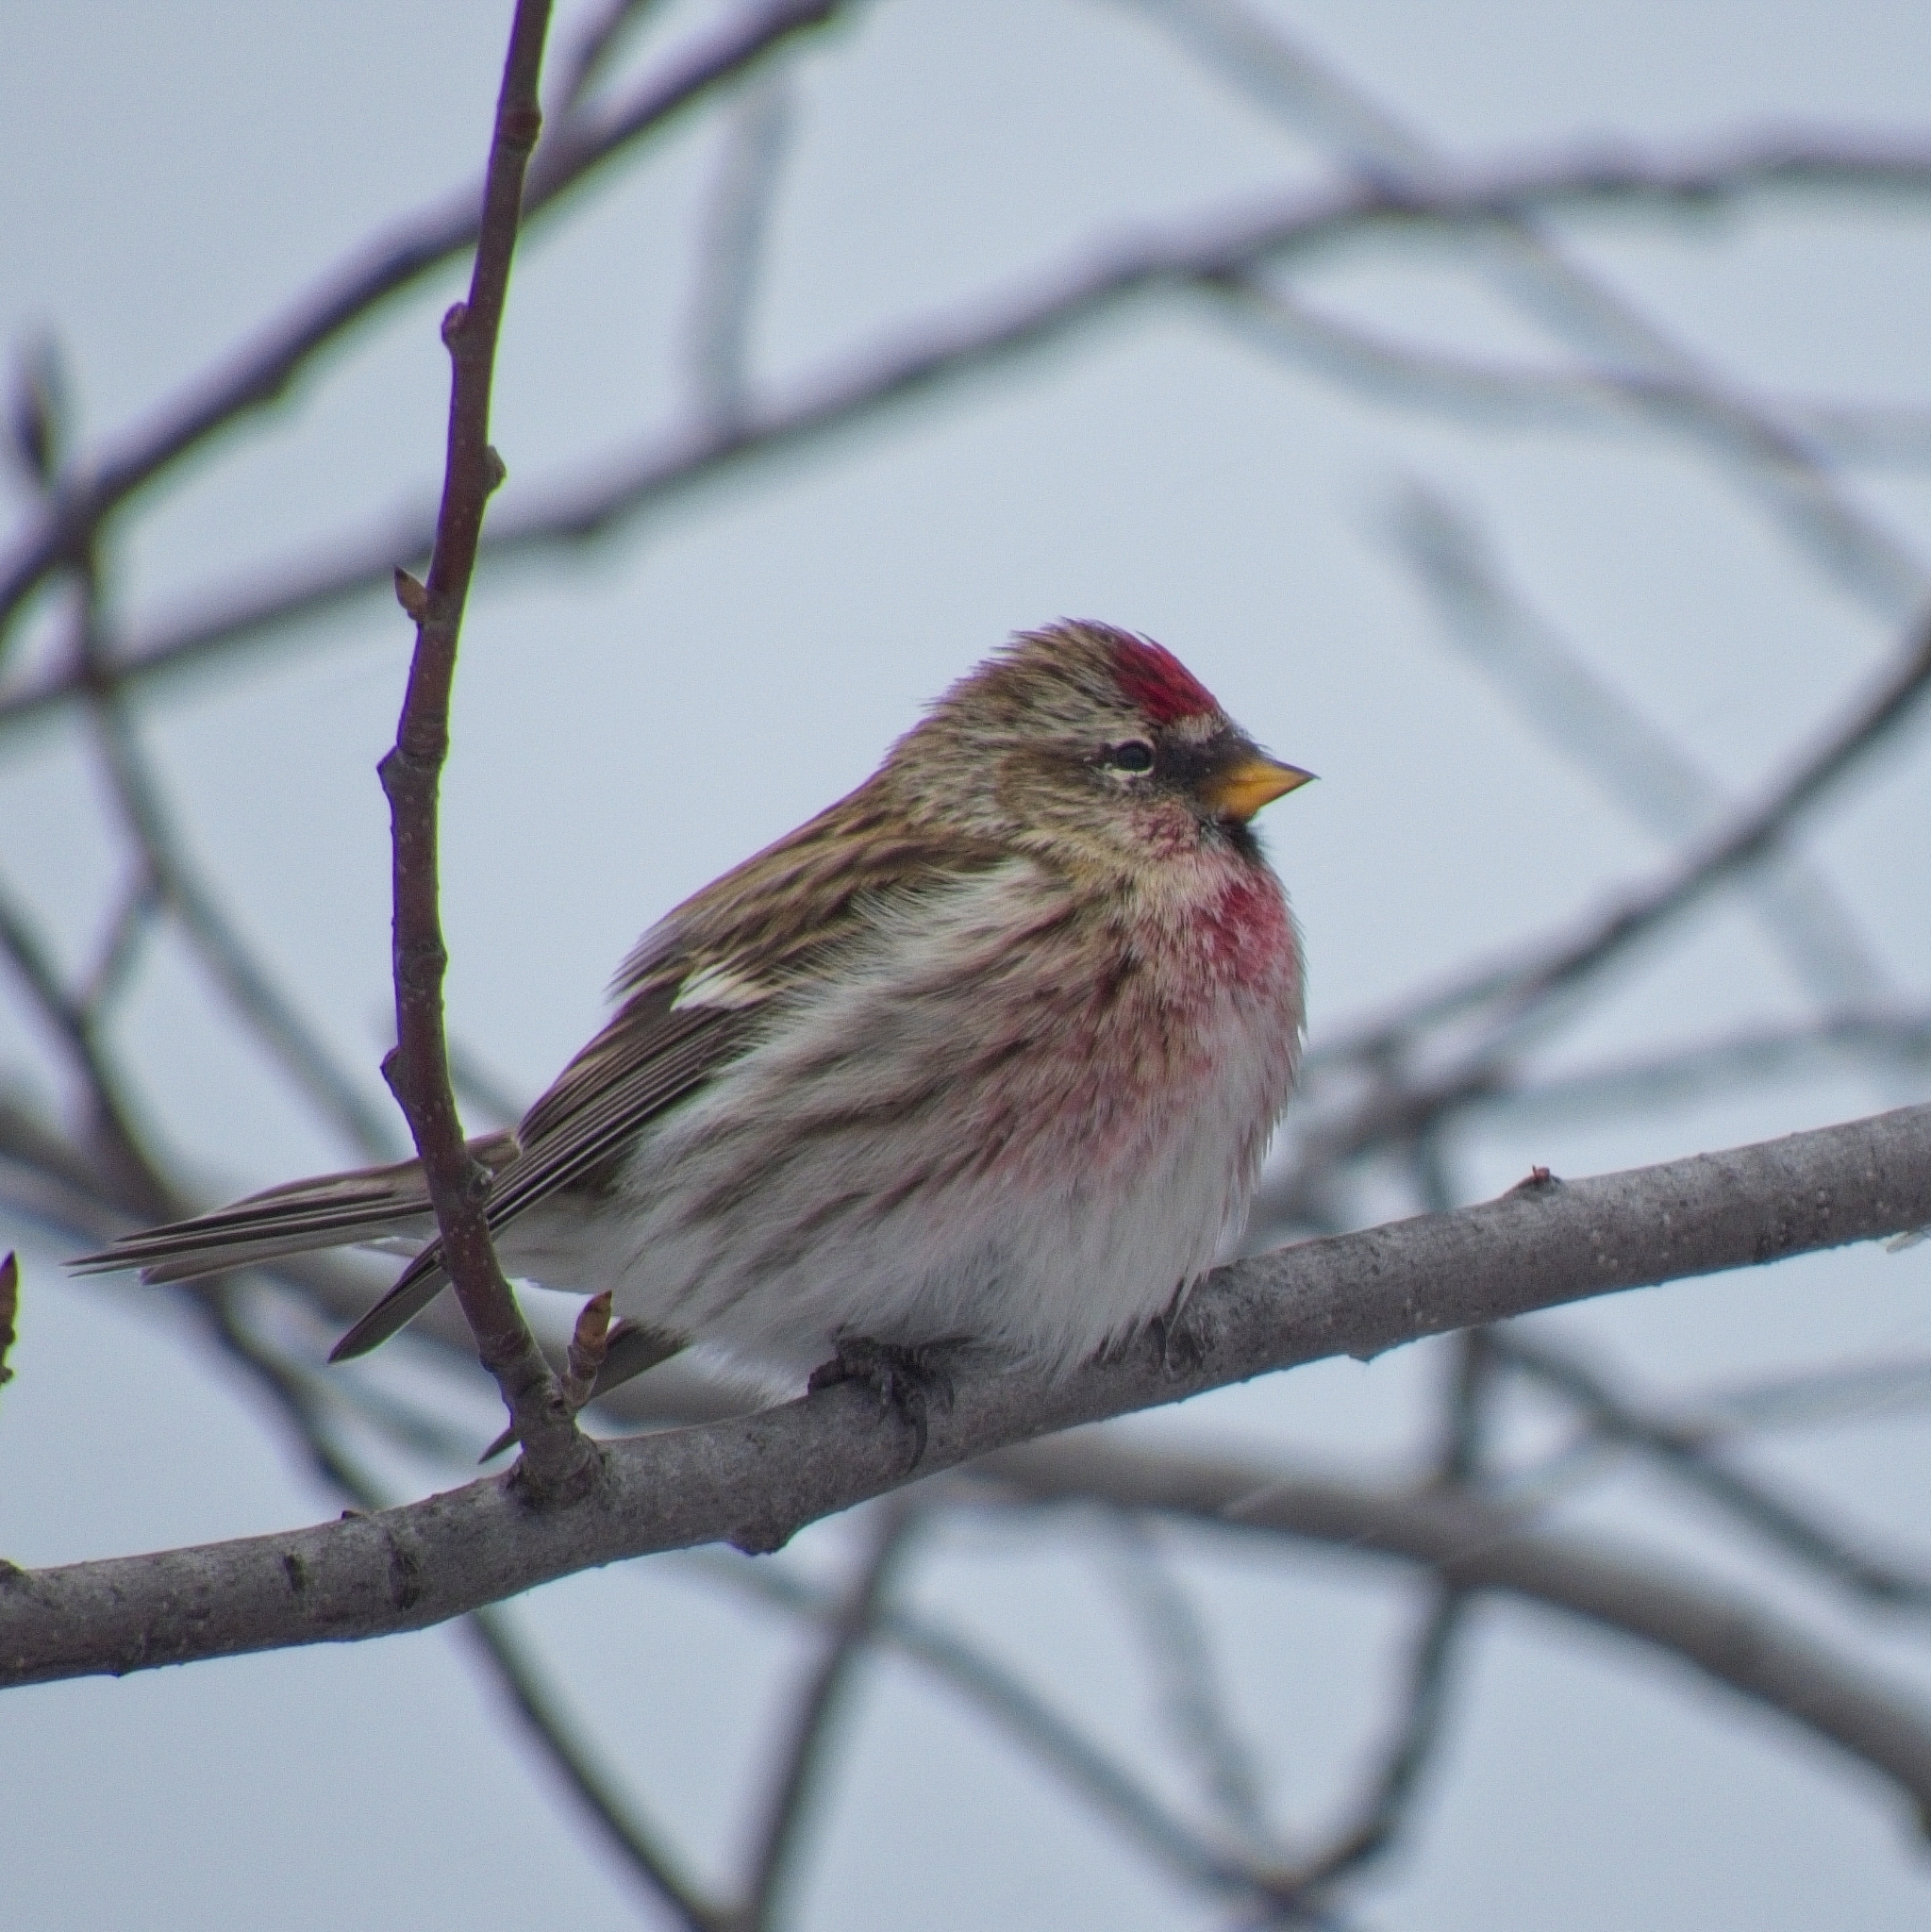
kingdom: Animalia
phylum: Chordata
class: Aves
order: Passeriformes
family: Fringillidae
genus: Acanthis
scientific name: Acanthis flammea
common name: Common redpoll
